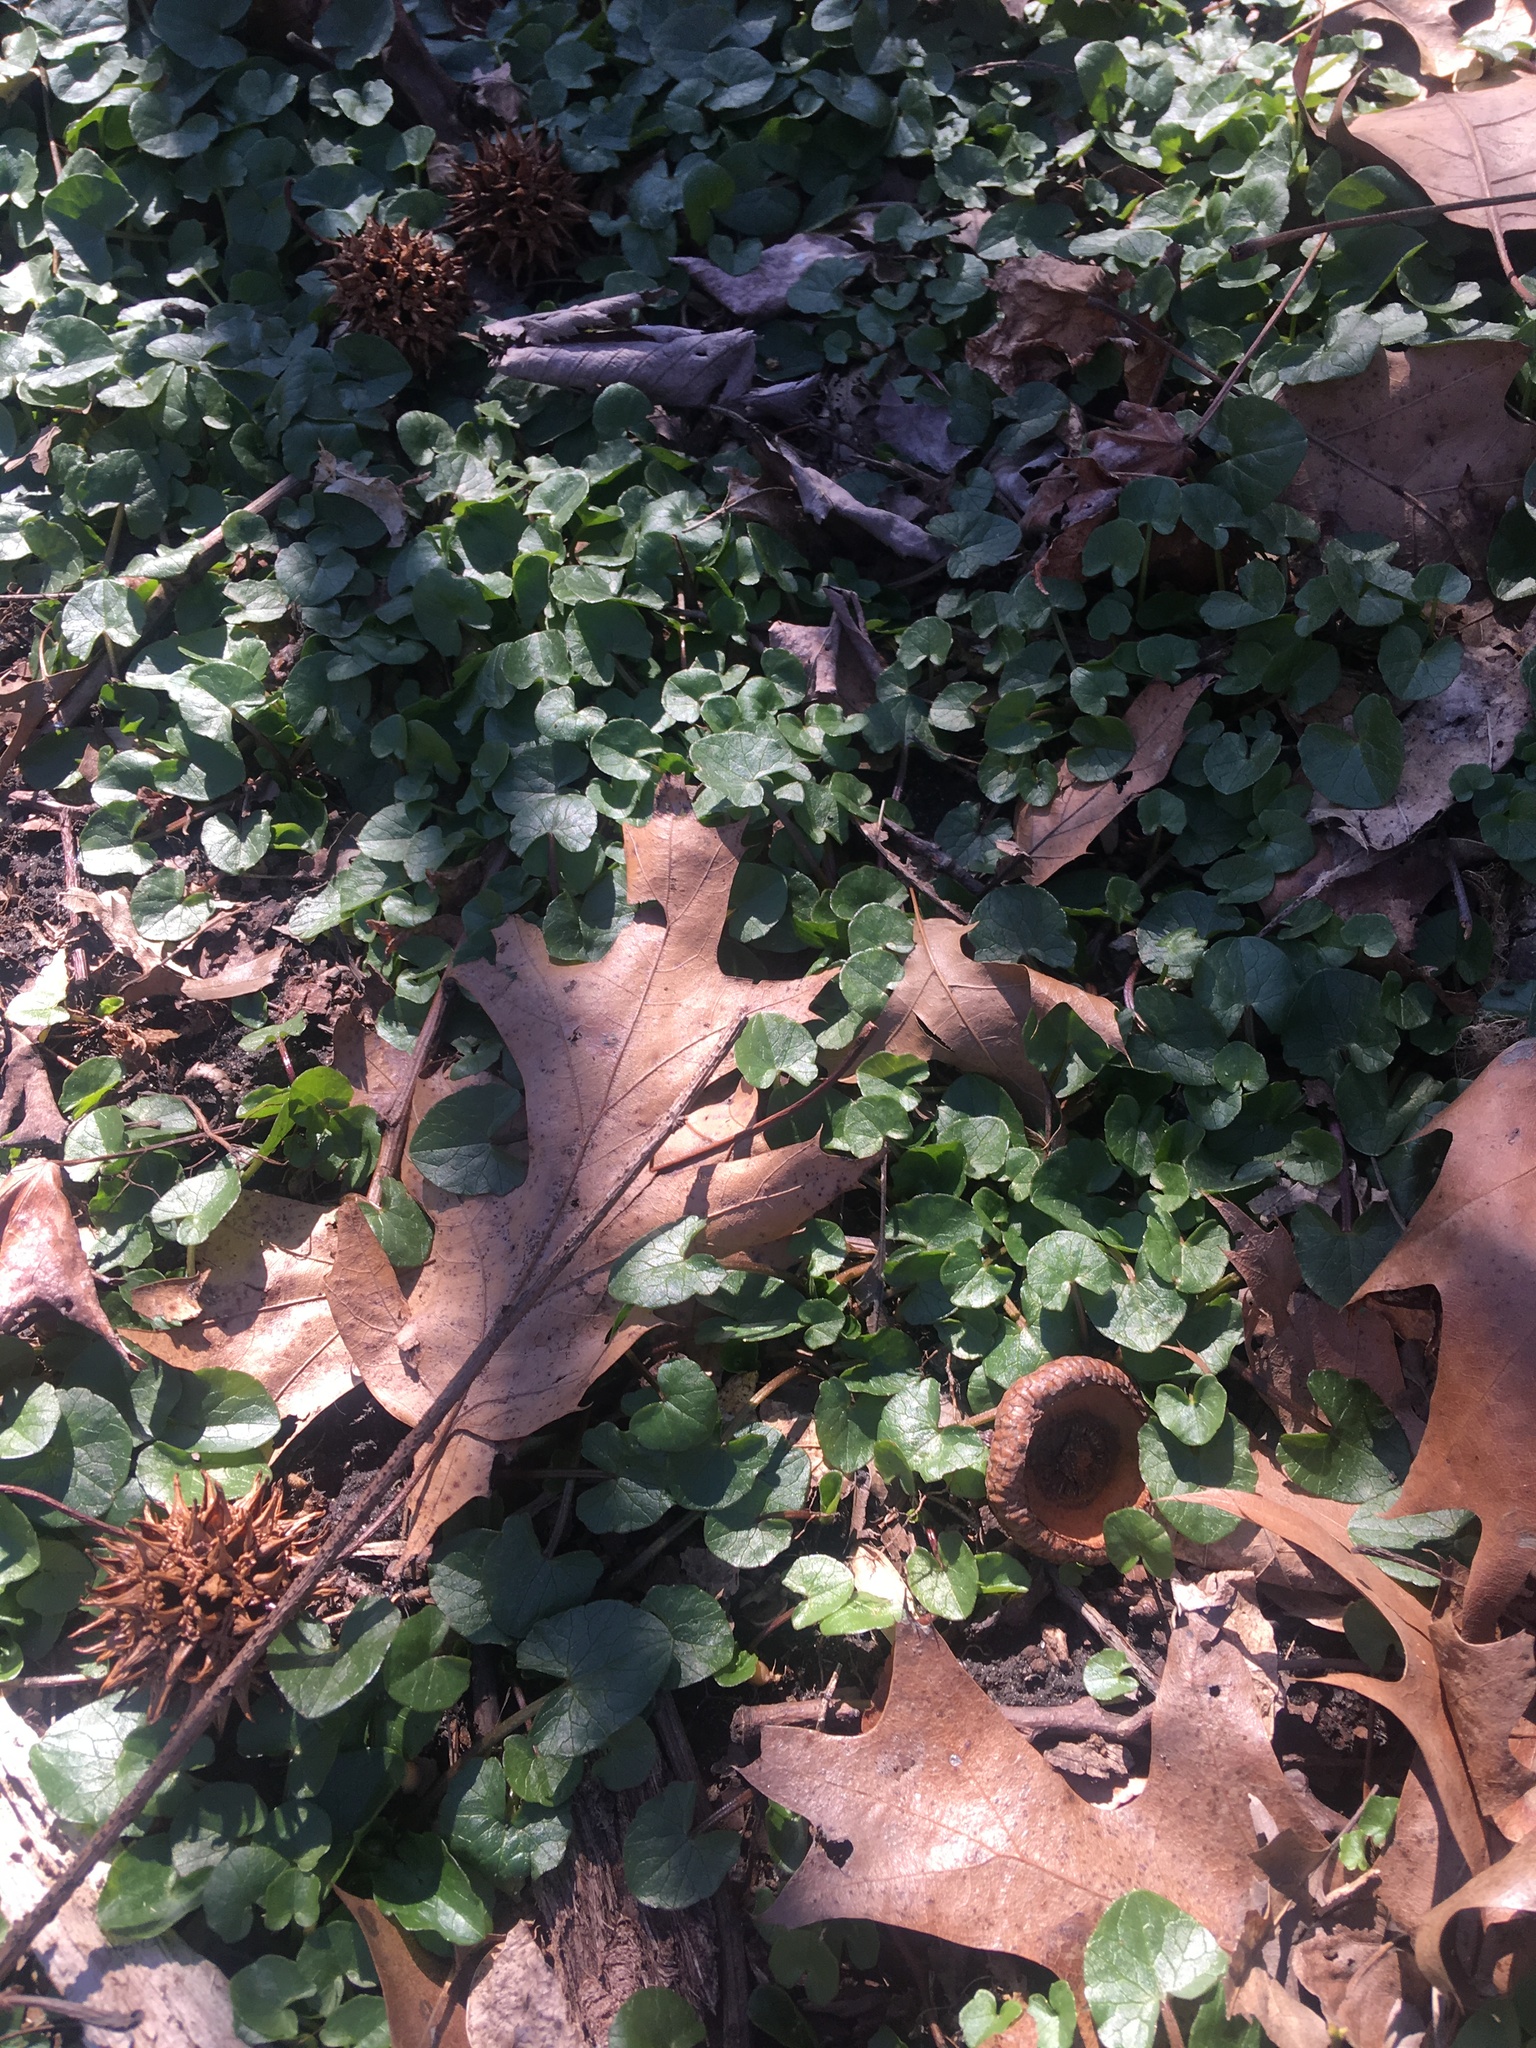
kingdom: Plantae
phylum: Tracheophyta
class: Magnoliopsida
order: Ranunculales
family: Ranunculaceae
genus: Ficaria
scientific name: Ficaria verna
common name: Lesser celandine
